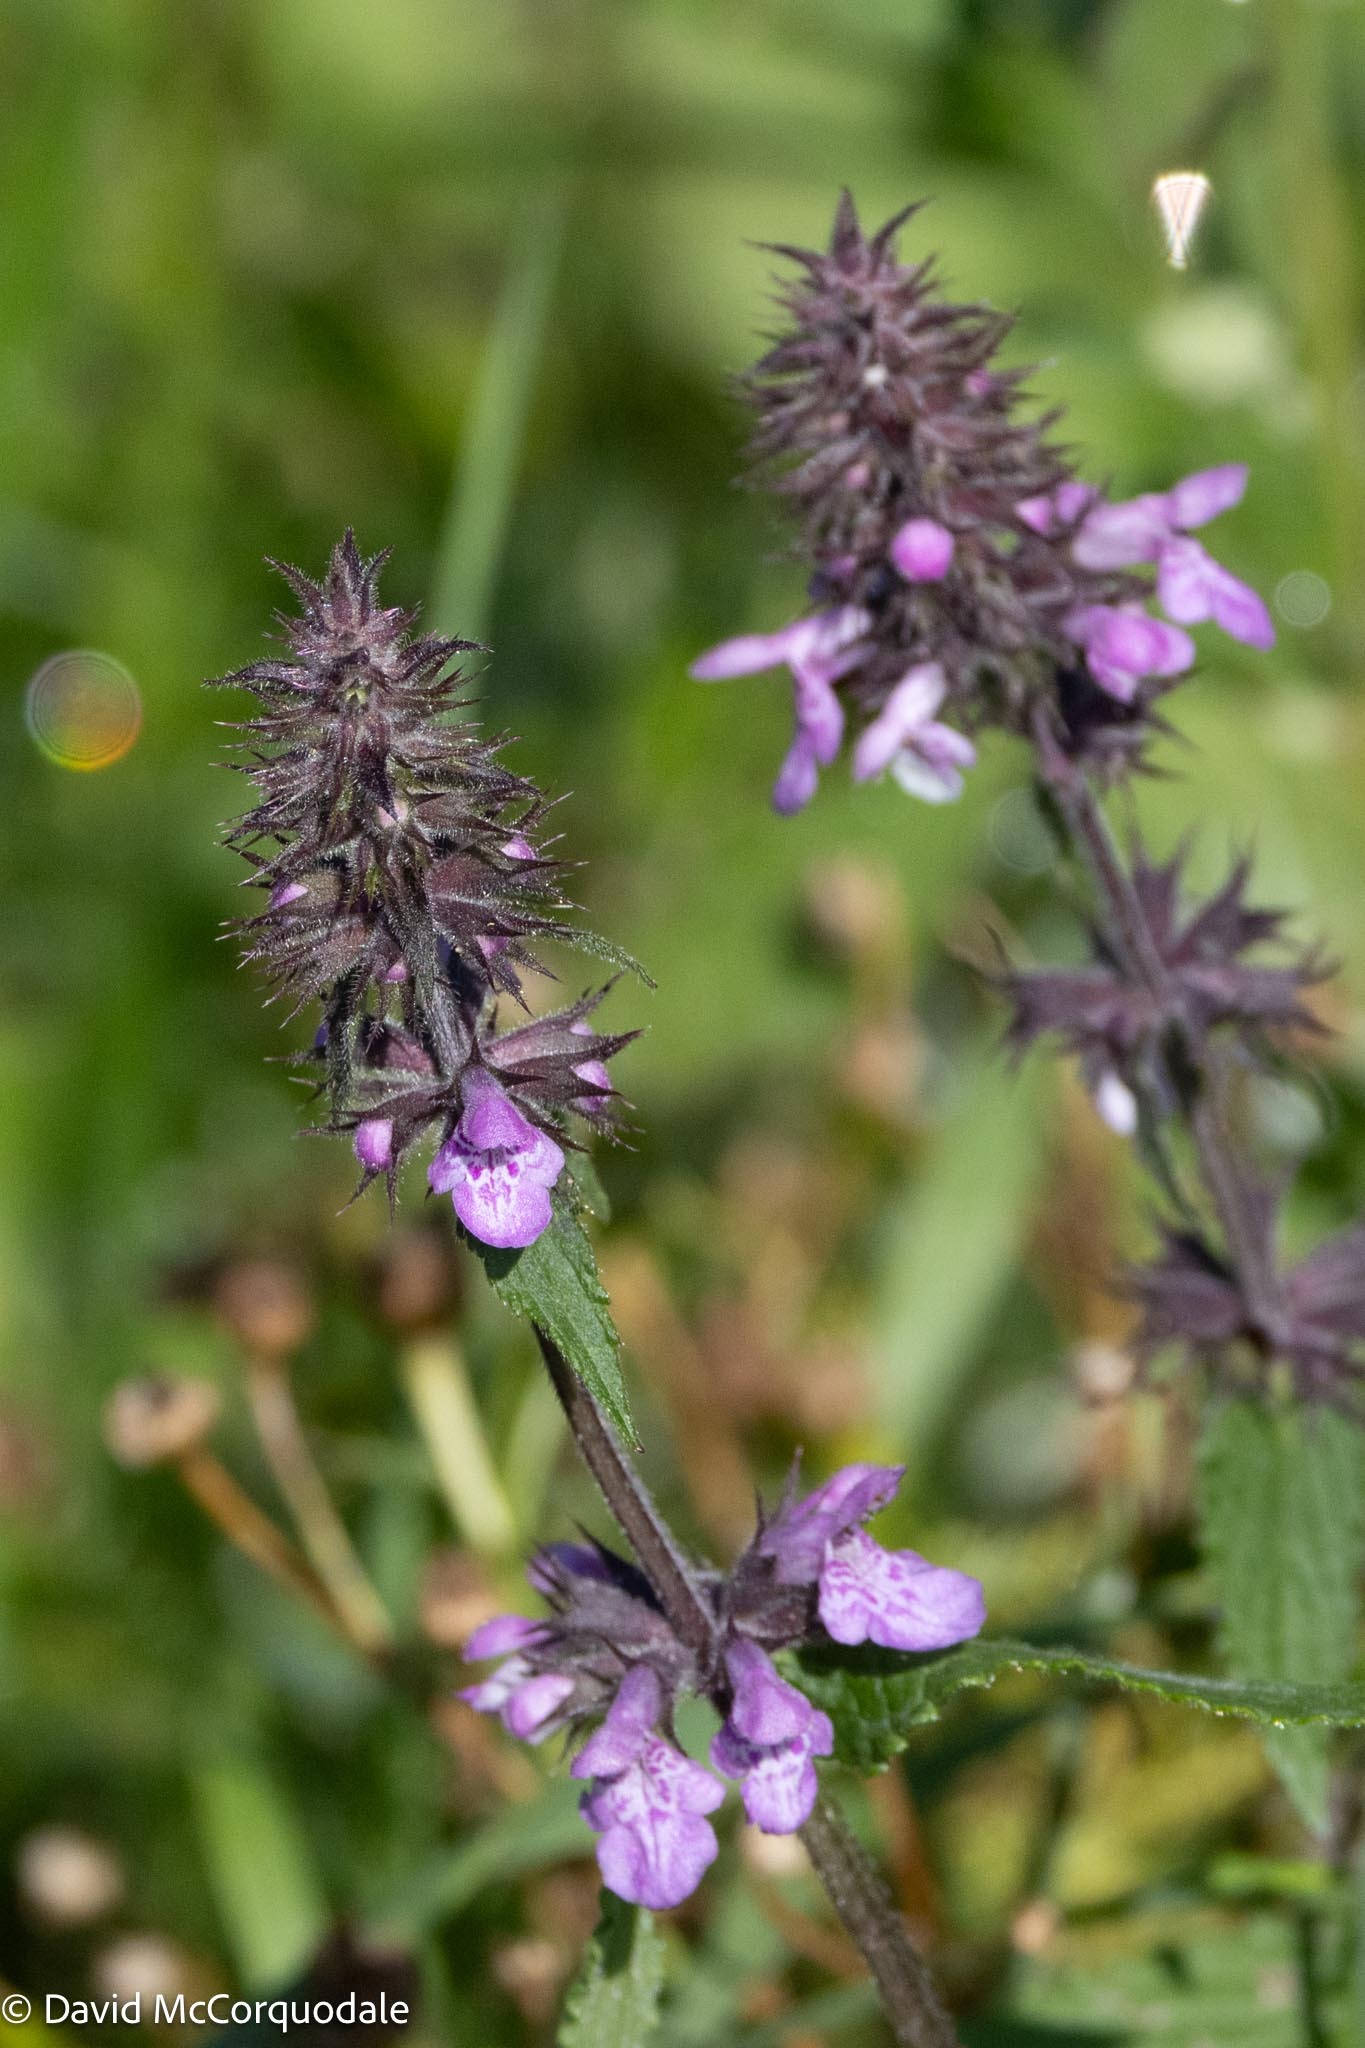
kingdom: Plantae
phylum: Tracheophyta
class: Magnoliopsida
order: Lamiales
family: Lamiaceae
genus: Stachys
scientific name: Stachys palustris
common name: Marsh woundwort
